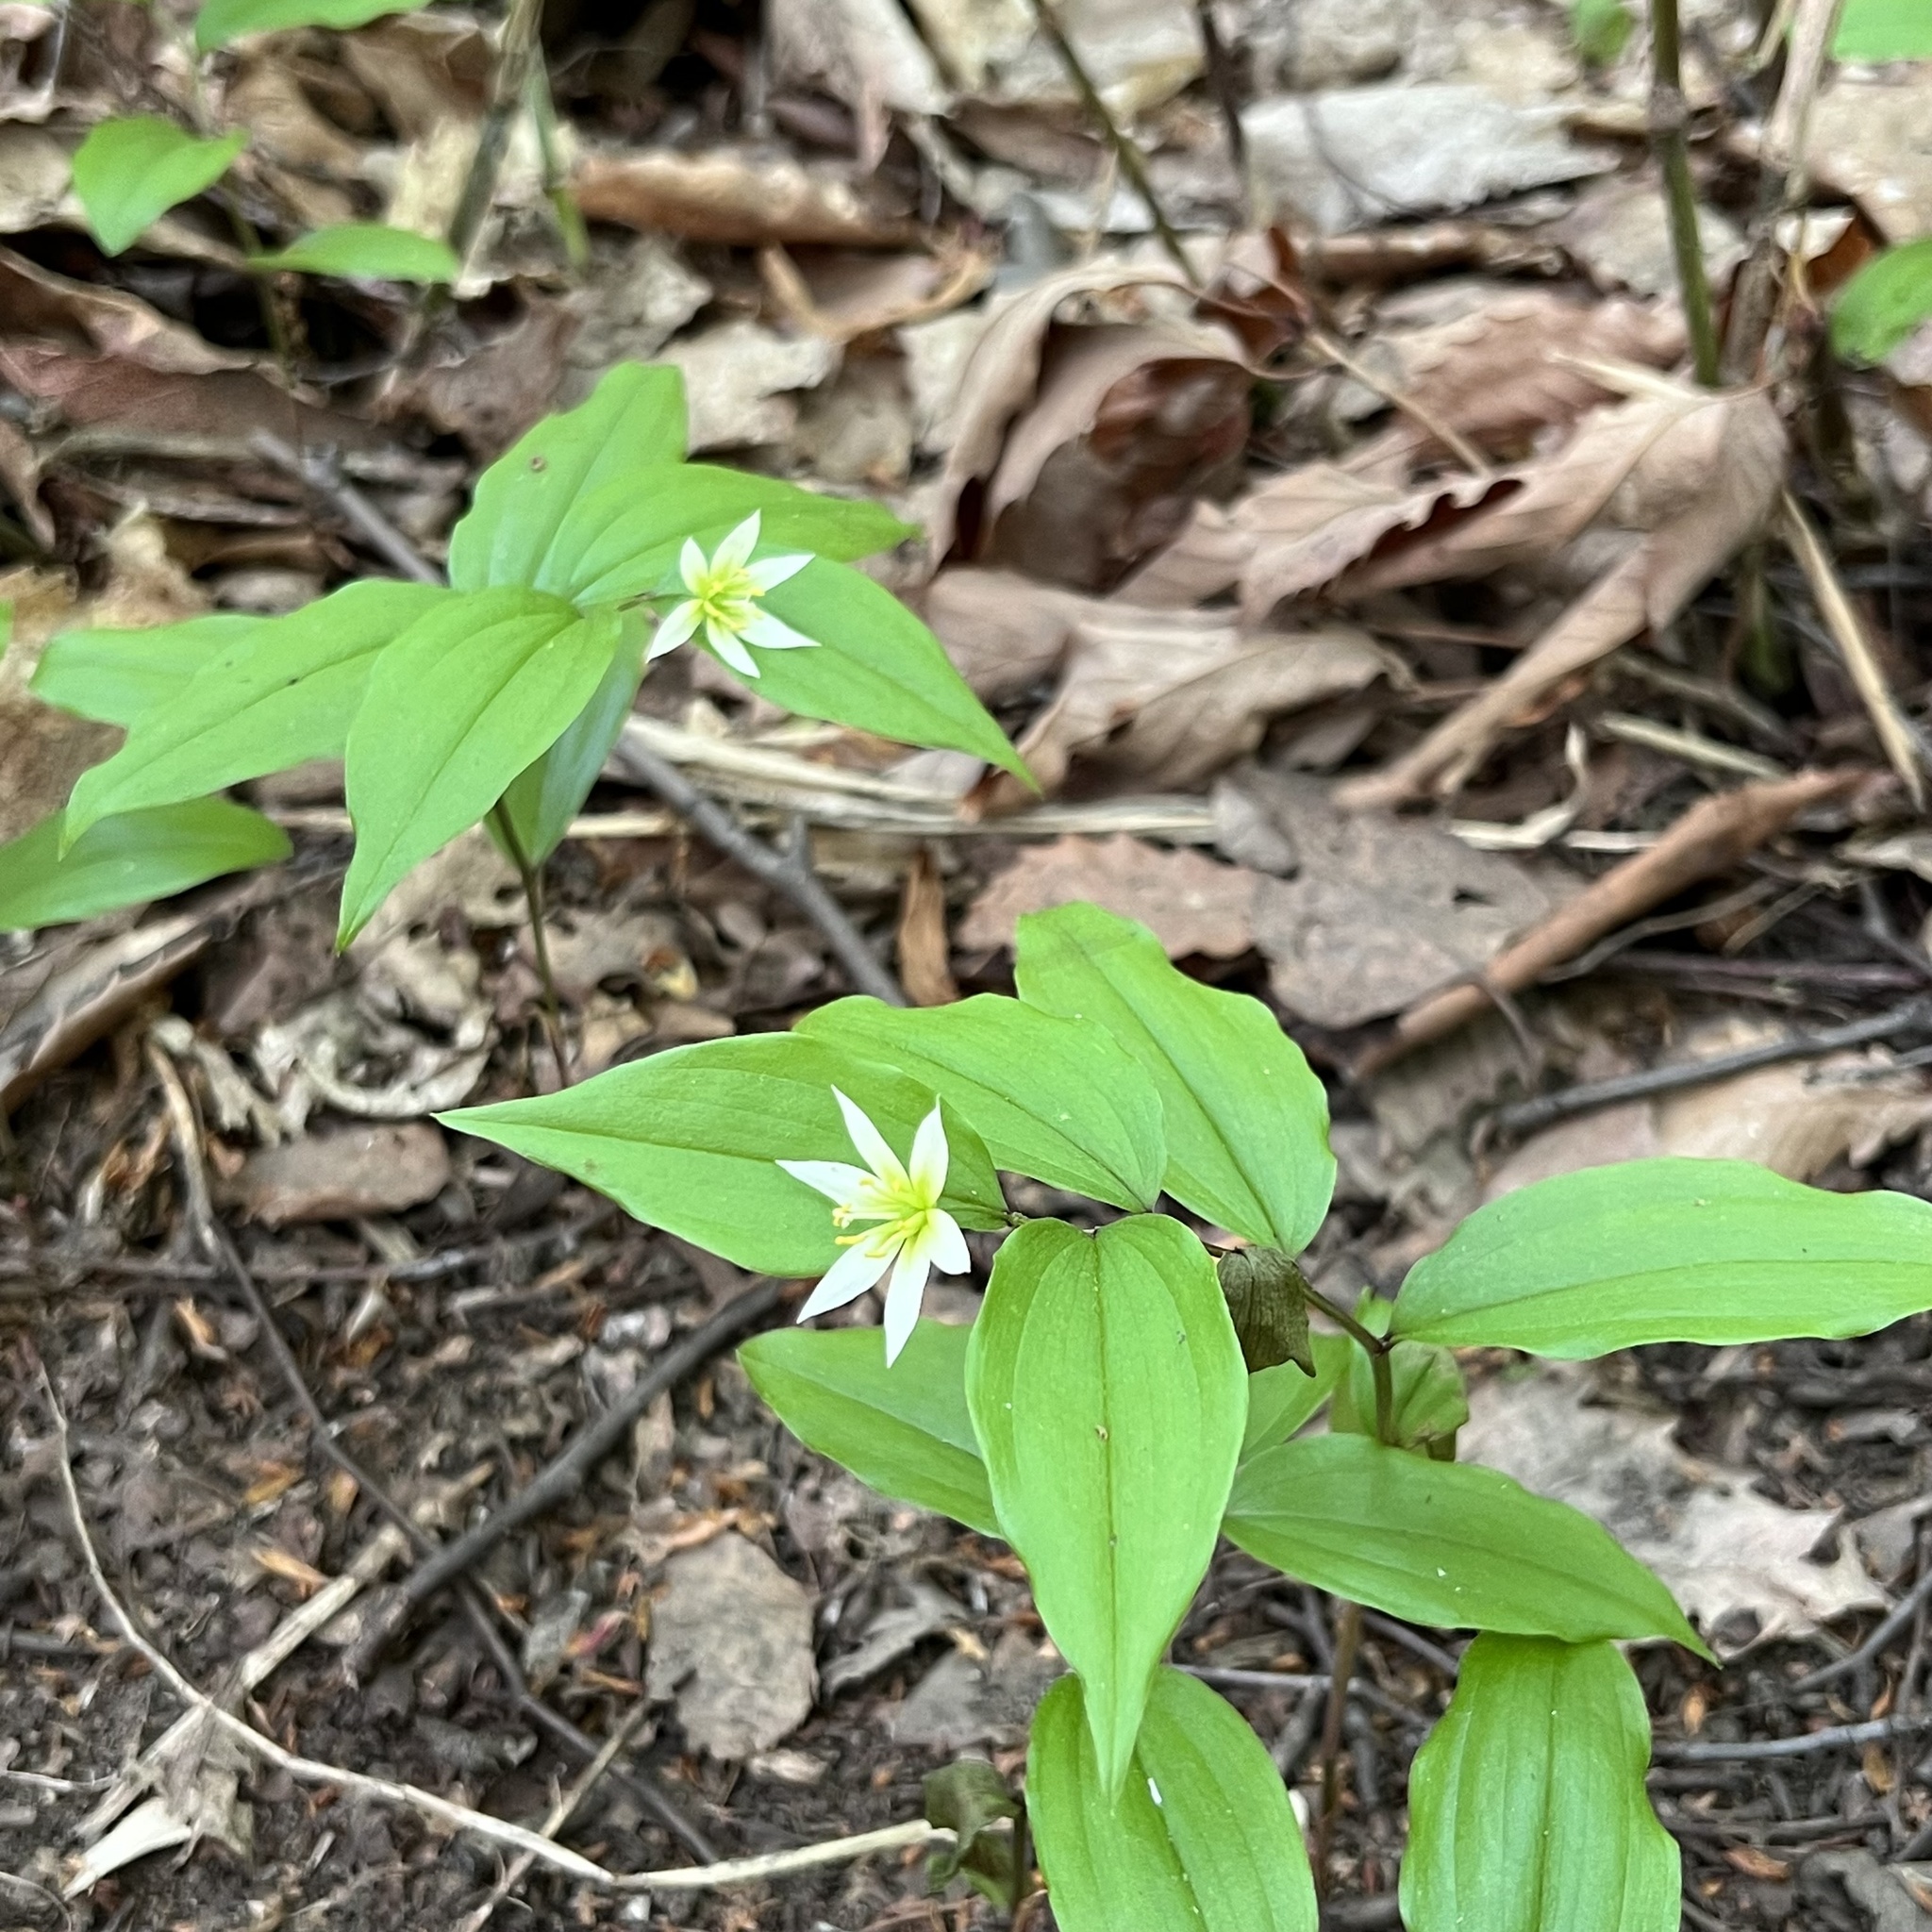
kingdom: Plantae
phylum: Tracheophyta
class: Liliopsida
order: Liliales
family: Colchicaceae
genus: Disporum
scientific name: Disporum smilacinum
